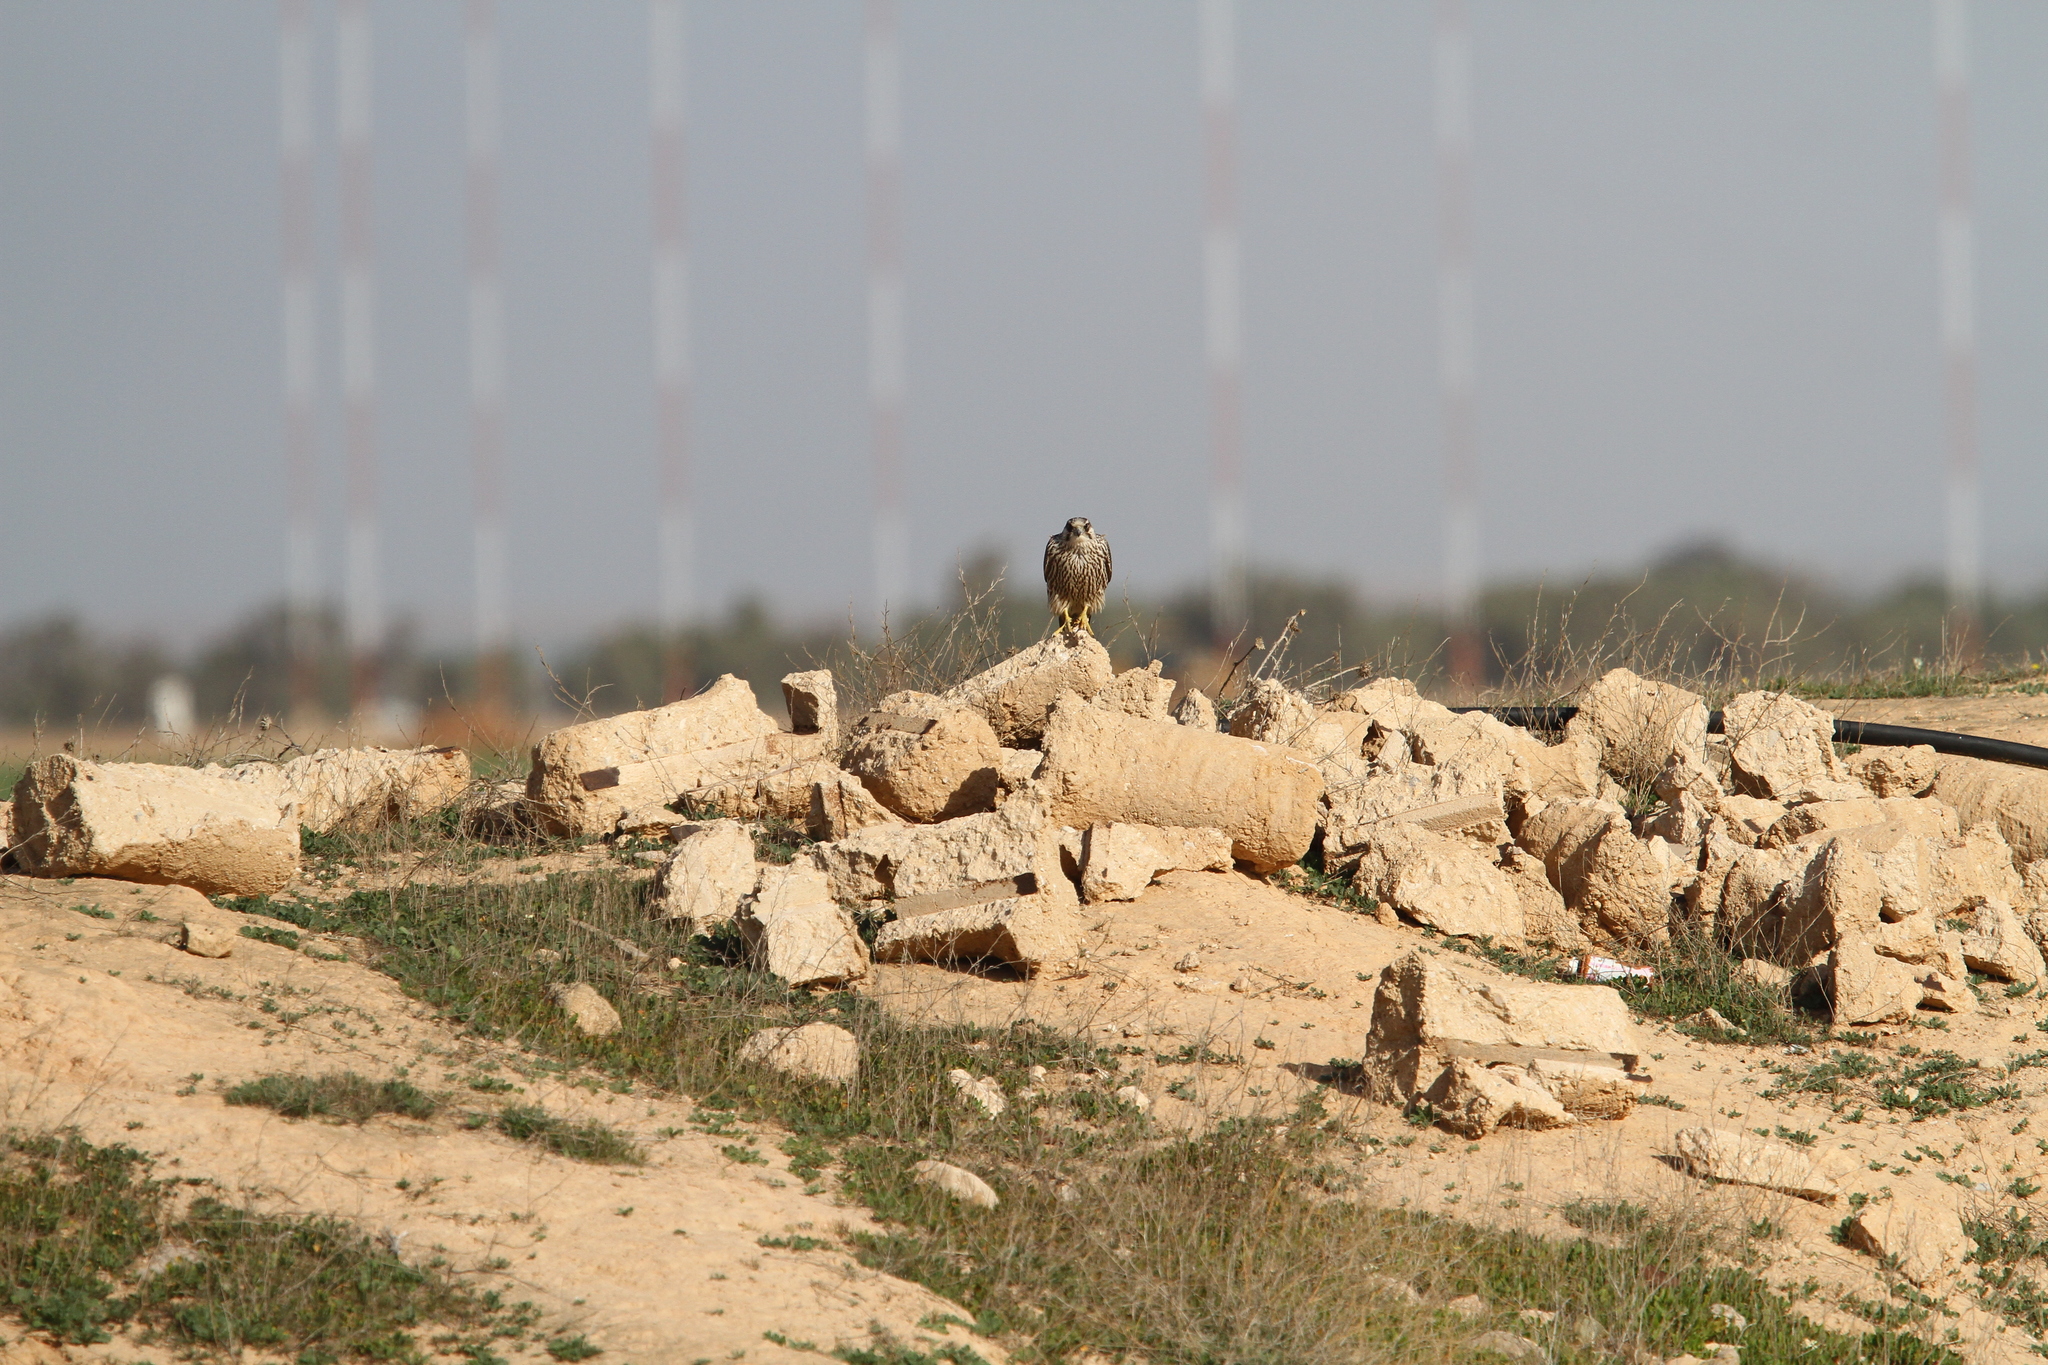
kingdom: Animalia
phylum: Chordata
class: Aves
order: Falconiformes
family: Falconidae
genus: Falco
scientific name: Falco peregrinus
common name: Peregrine falcon
